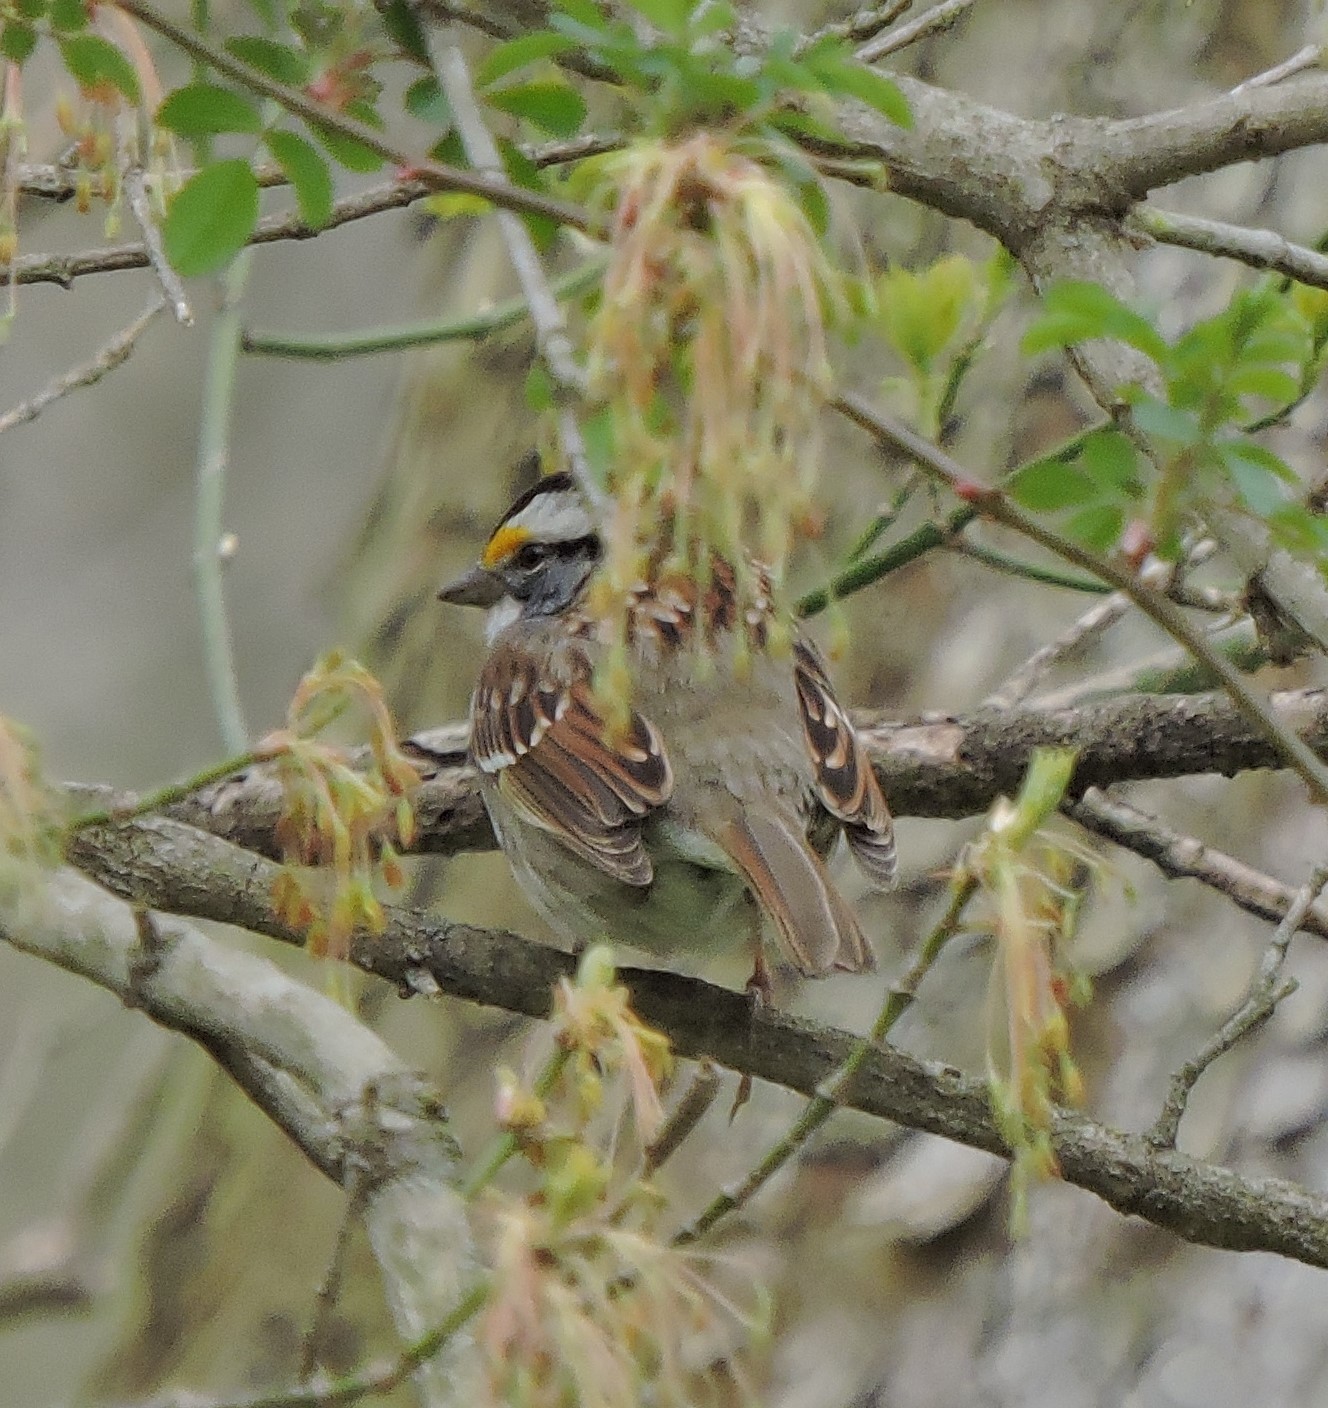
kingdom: Animalia
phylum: Chordata
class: Aves
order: Passeriformes
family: Passerellidae
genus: Zonotrichia
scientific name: Zonotrichia albicollis
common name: White-throated sparrow
